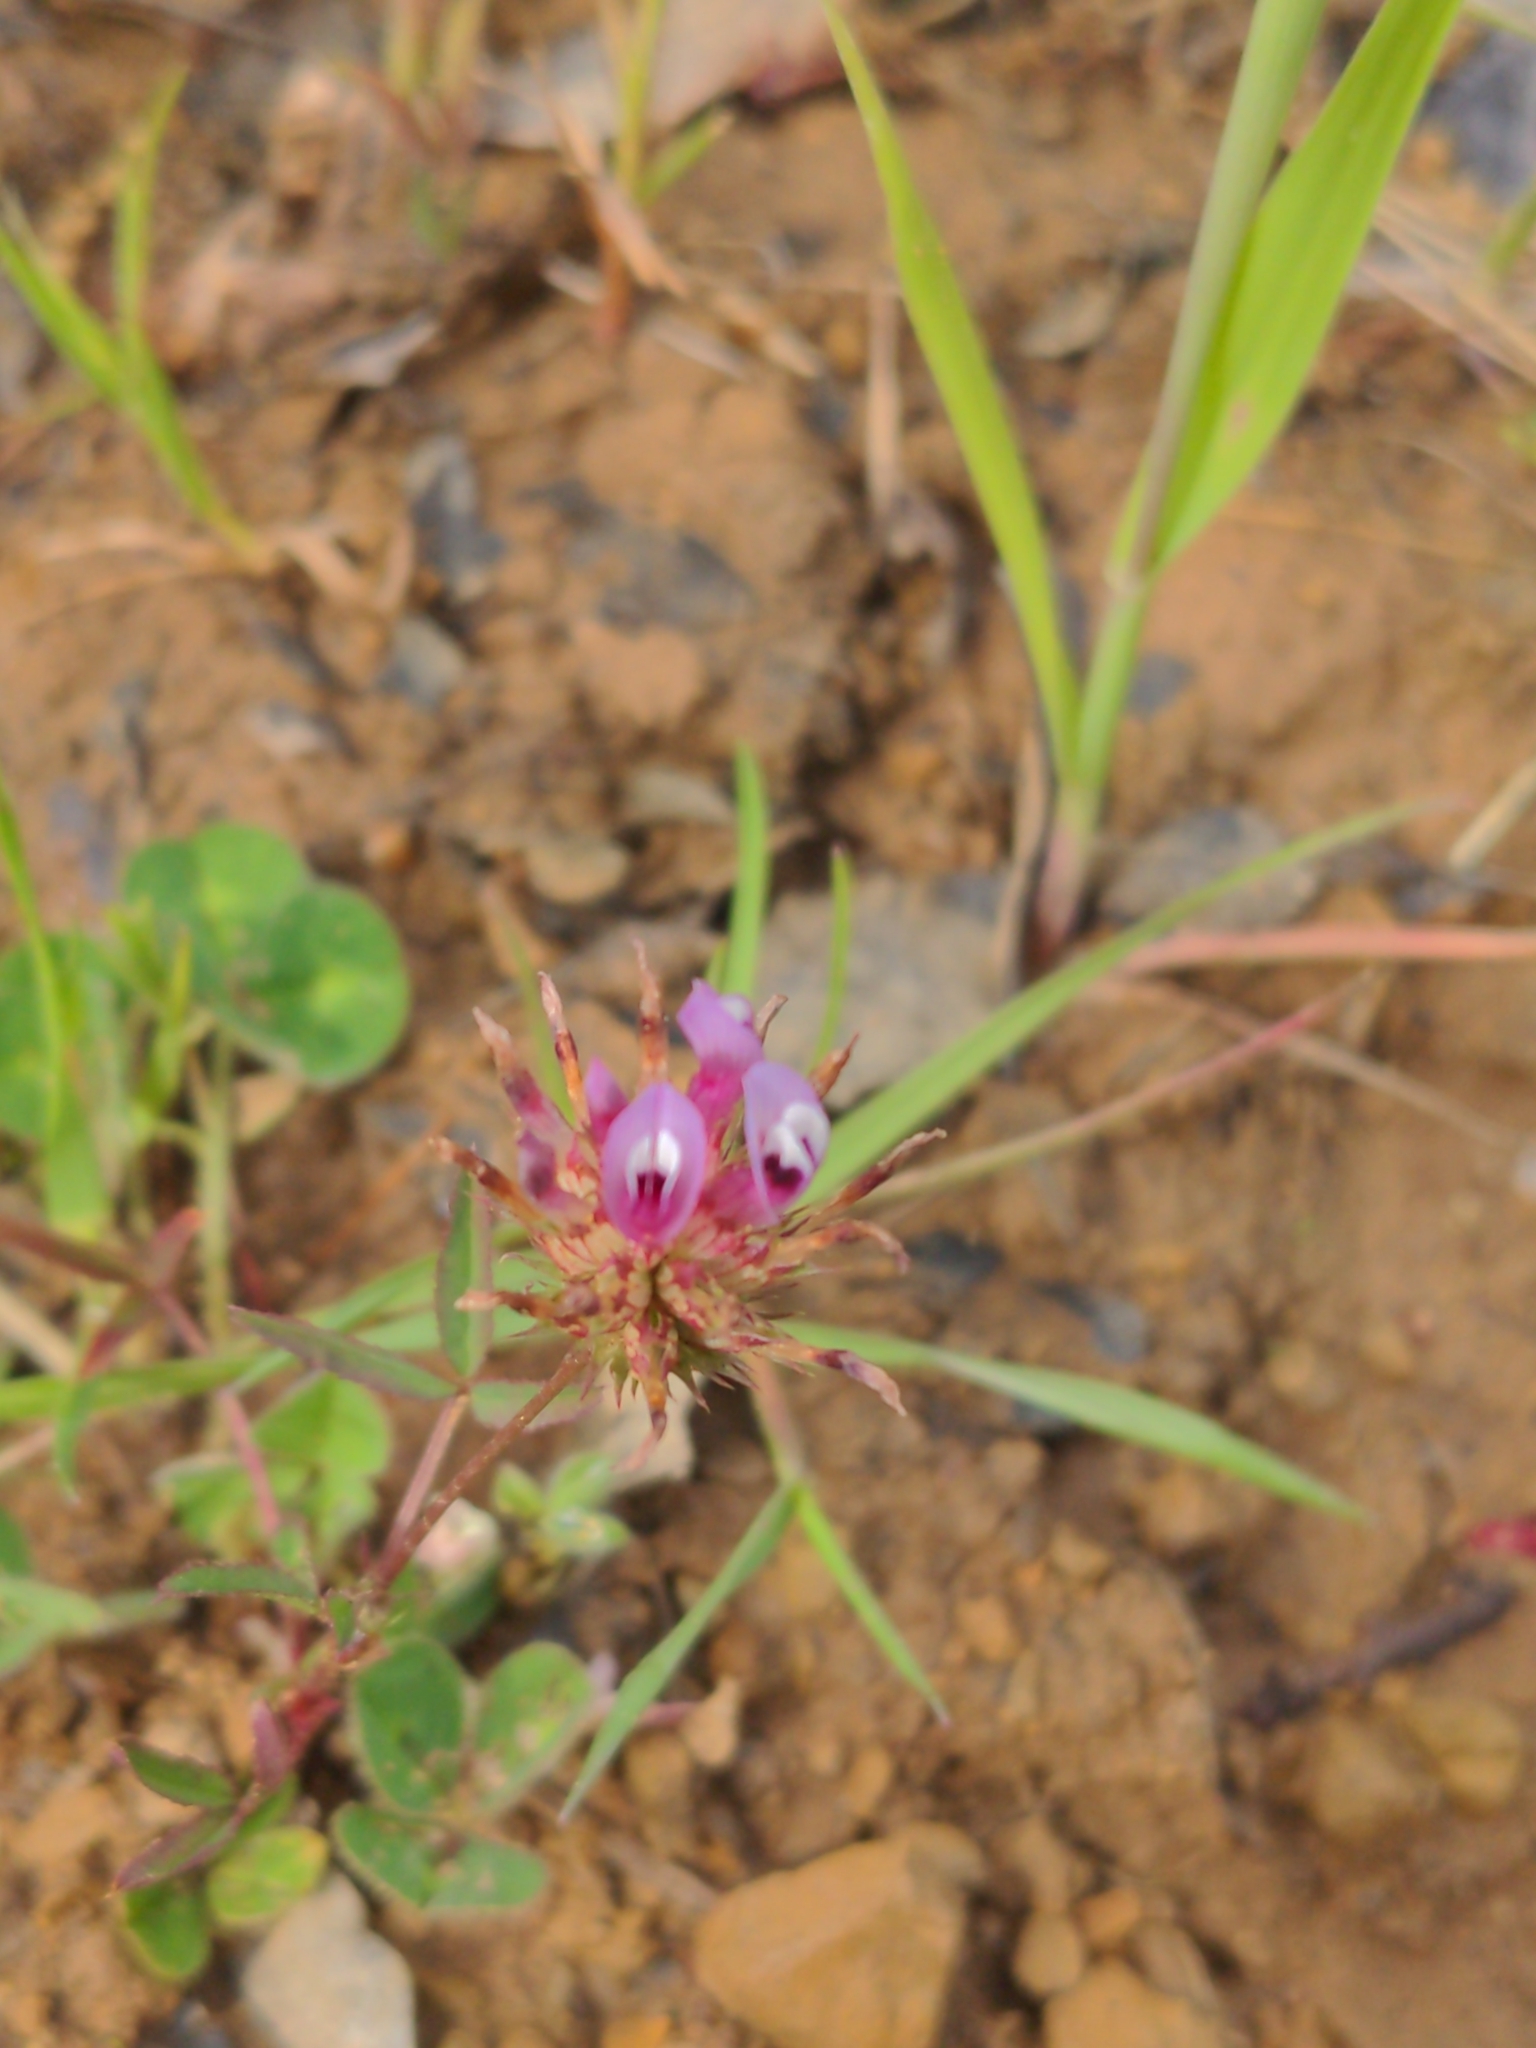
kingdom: Plantae
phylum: Tracheophyta
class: Magnoliopsida
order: Fabales
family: Fabaceae
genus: Trifolium
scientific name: Trifolium willdenovii
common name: Tomcat clover
